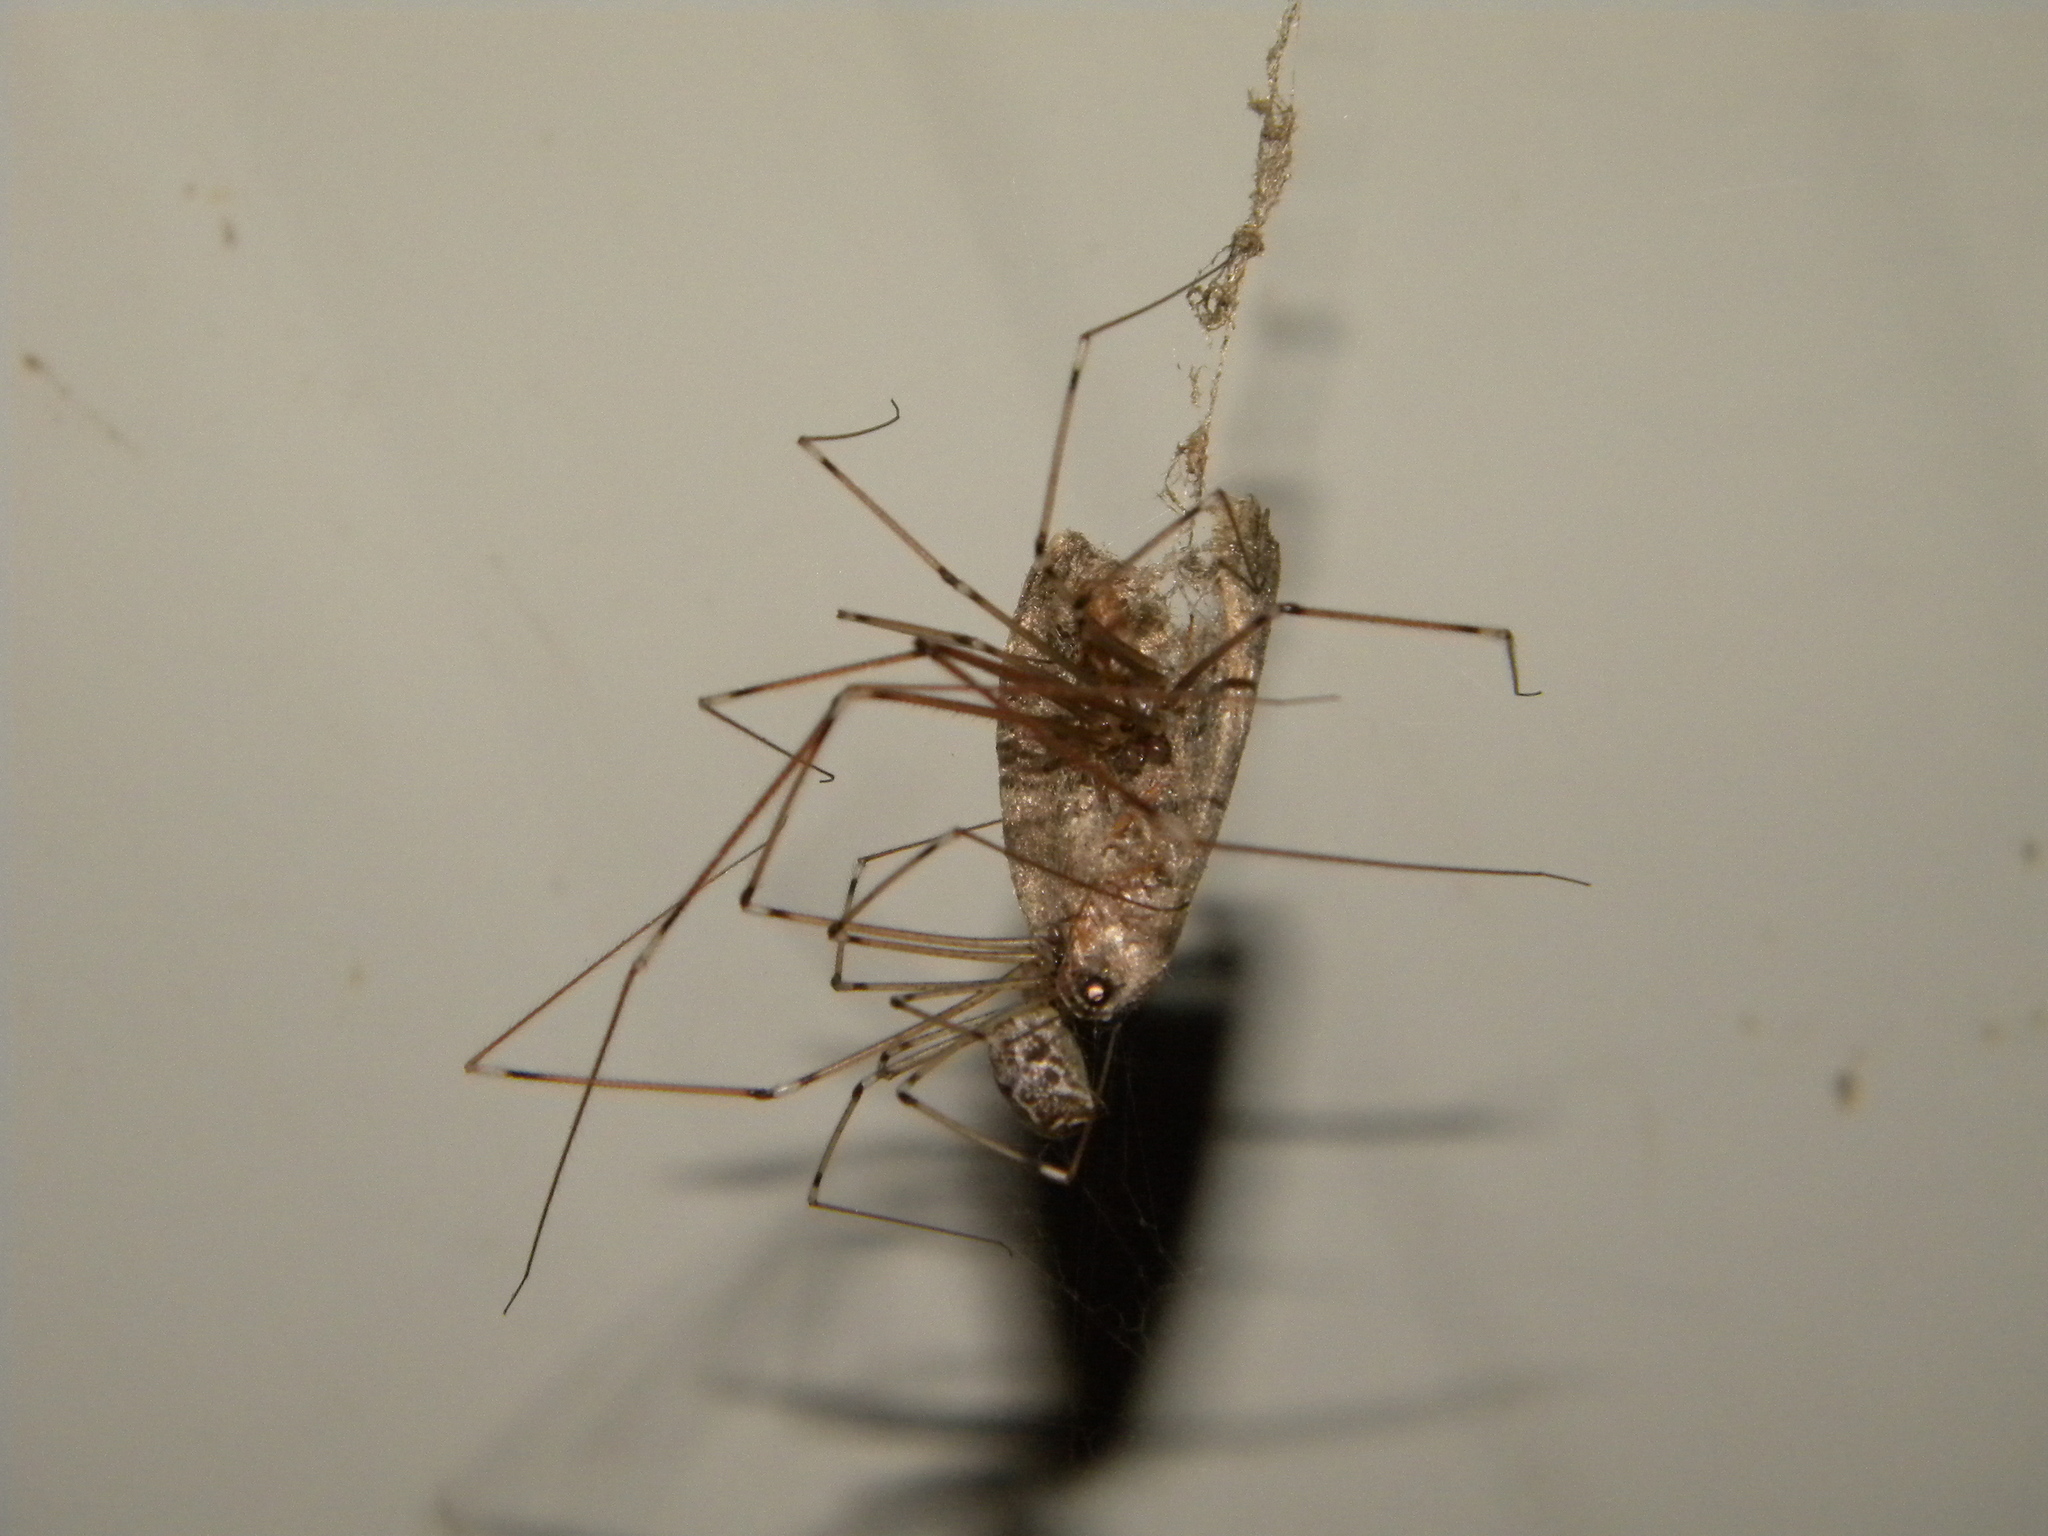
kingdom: Animalia
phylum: Arthropoda
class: Arachnida
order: Araneae
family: Pholcidae
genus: Holocnemus
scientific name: Holocnemus pluchei
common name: Marbled cellar spider
